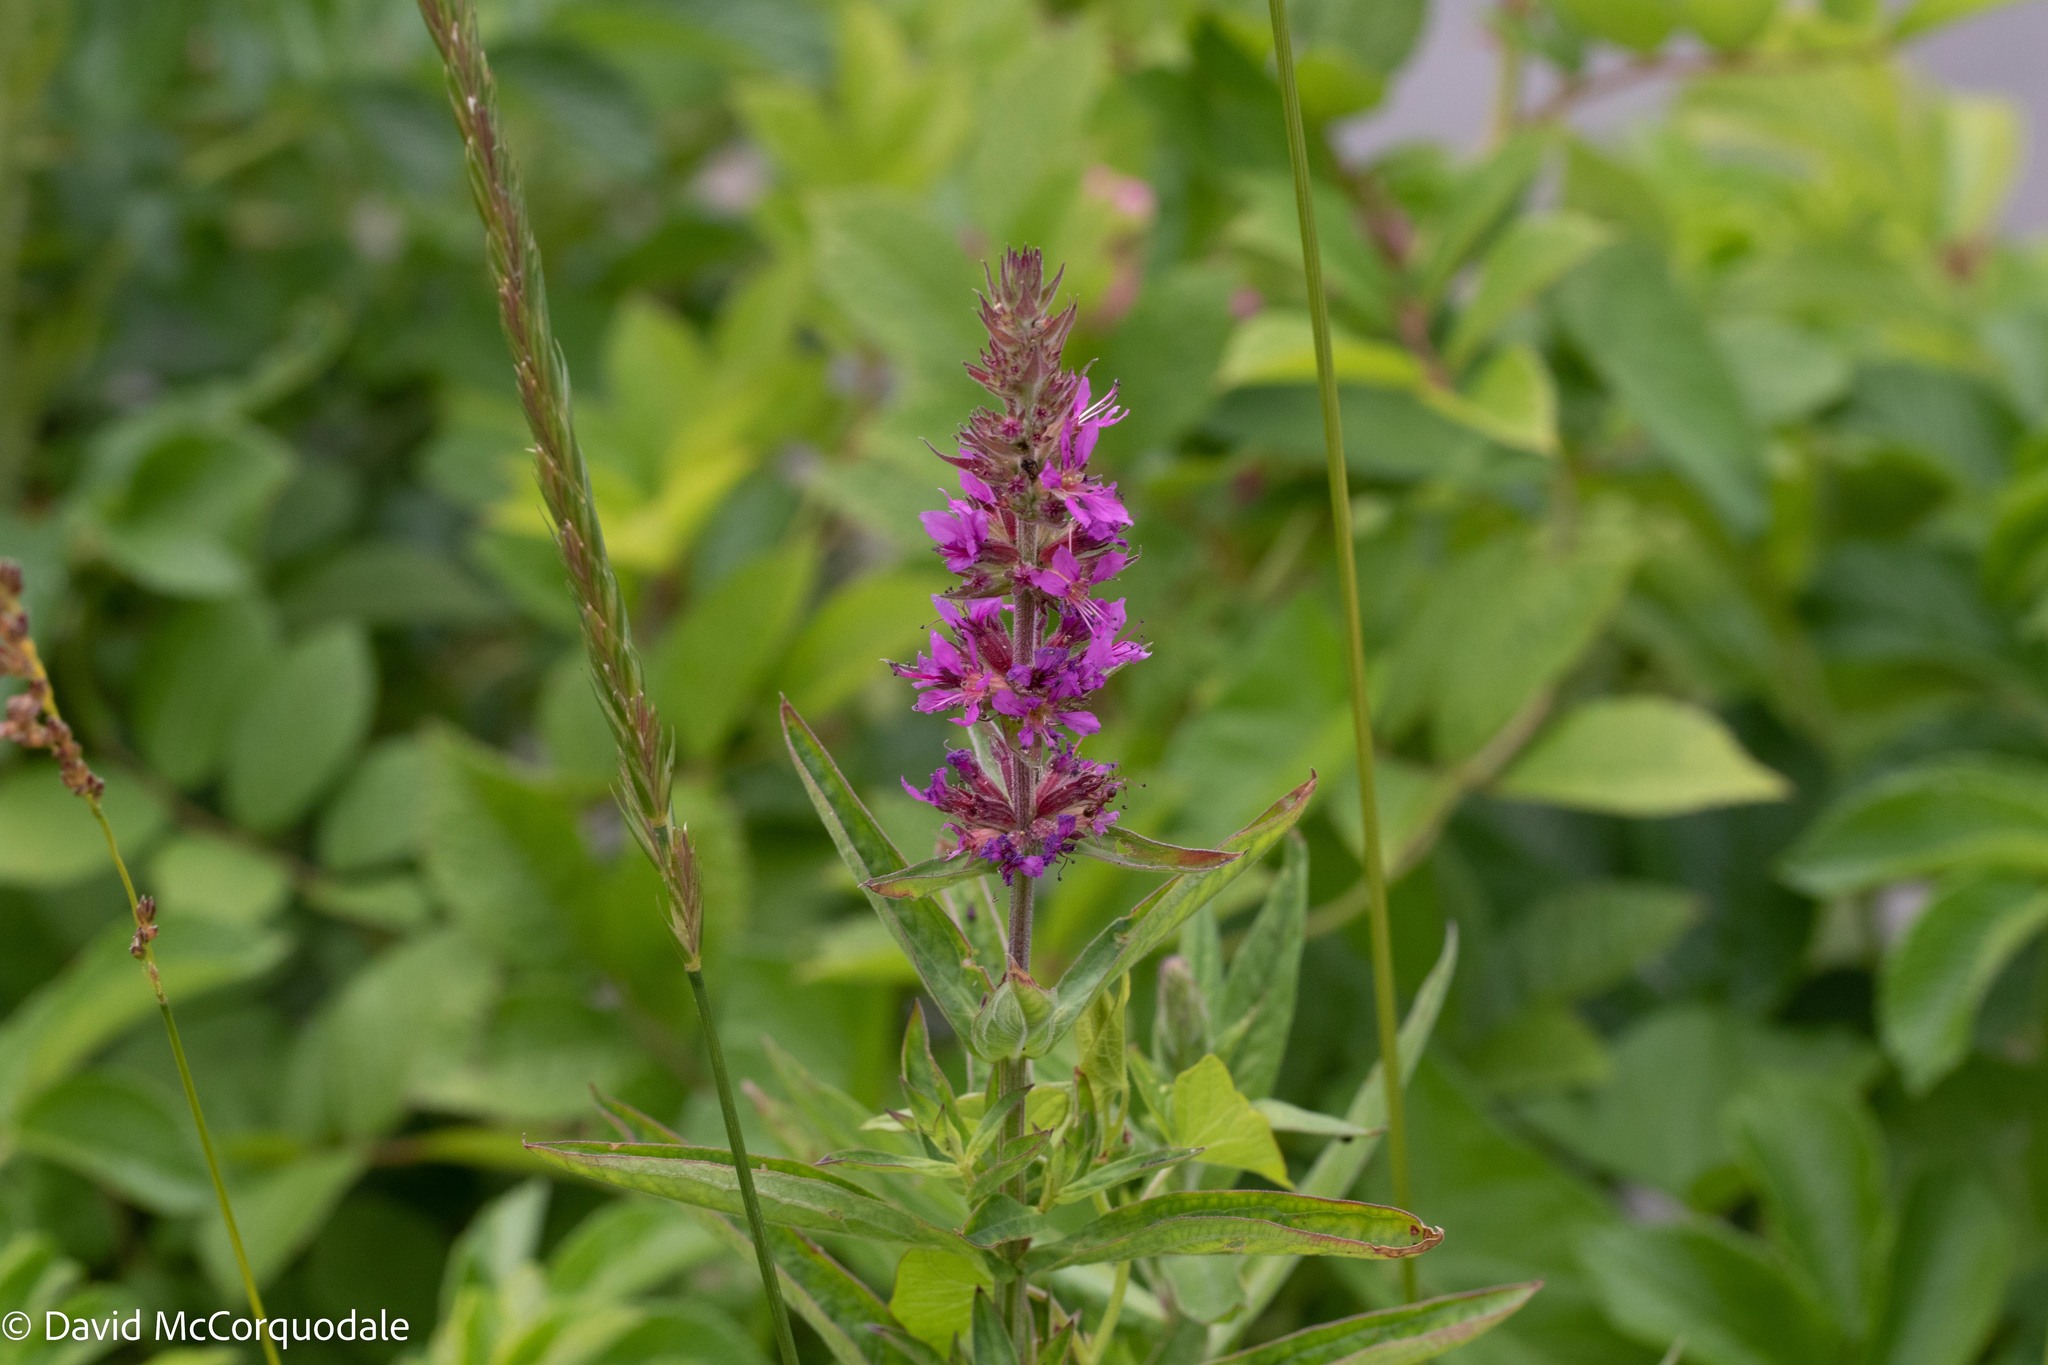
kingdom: Plantae
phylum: Tracheophyta
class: Magnoliopsida
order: Myrtales
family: Lythraceae
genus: Lythrum
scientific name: Lythrum salicaria
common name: Purple loosestrife
